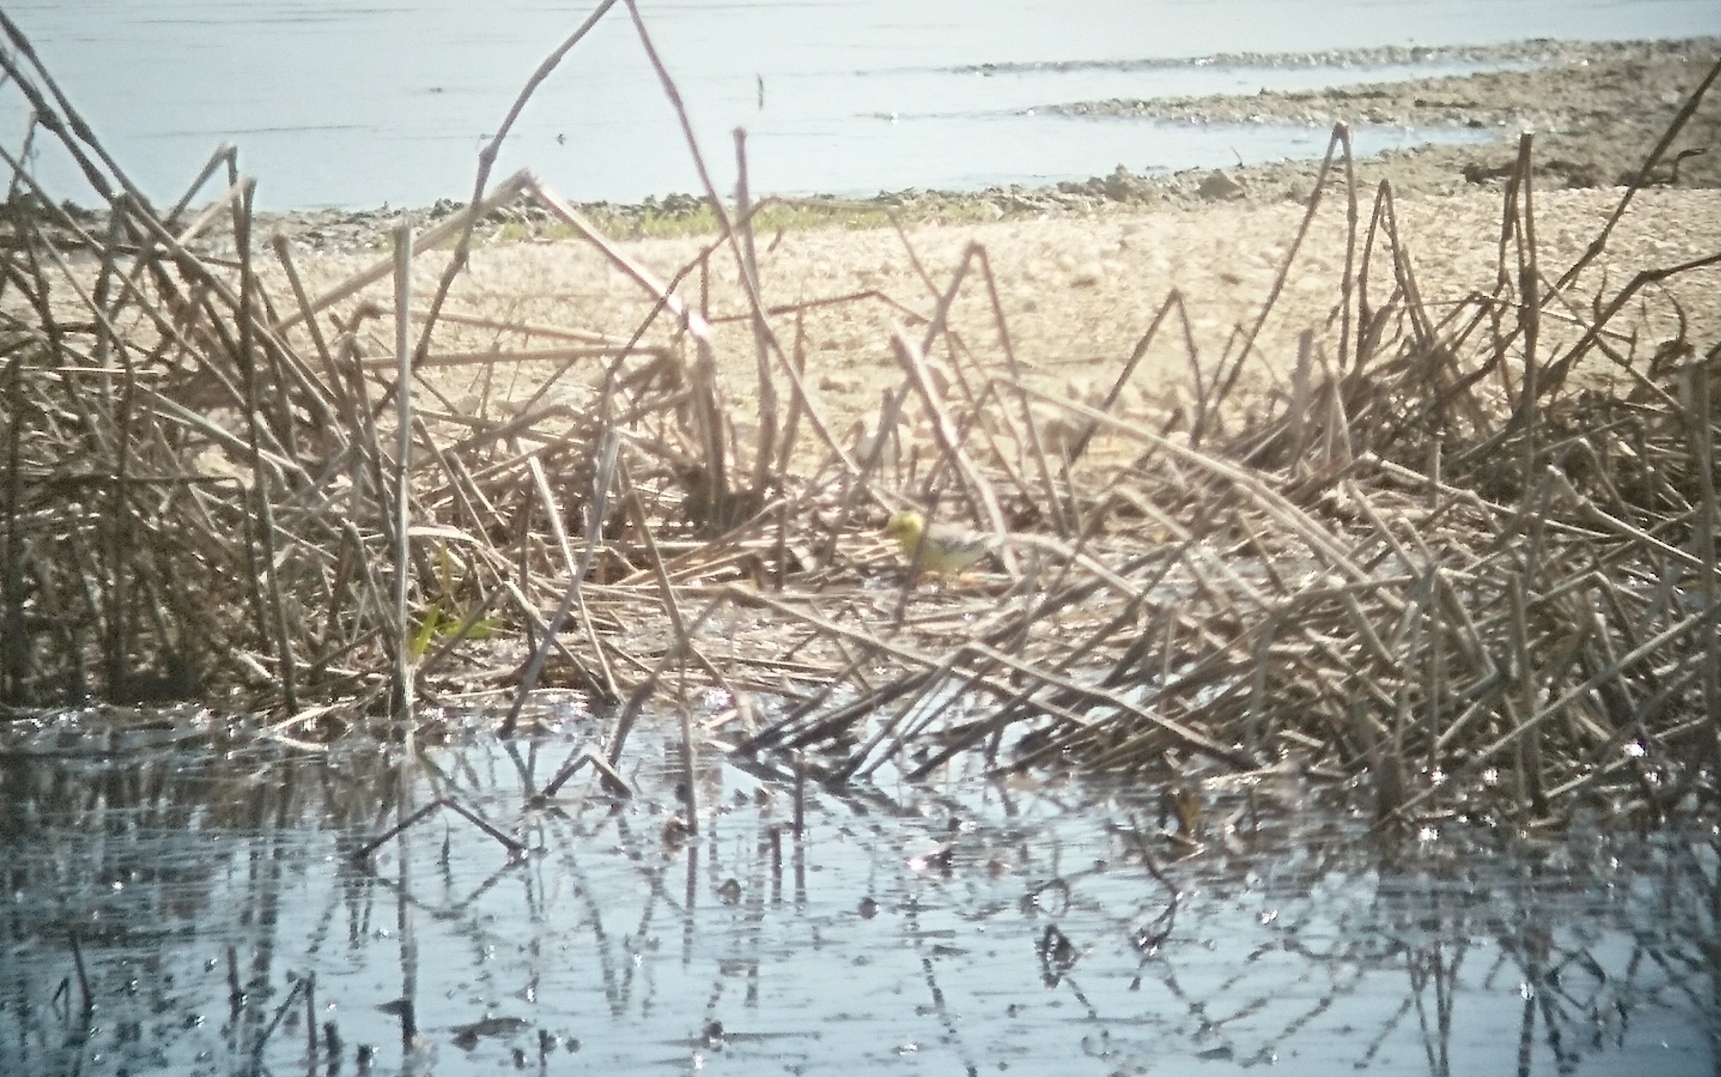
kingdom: Animalia
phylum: Chordata
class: Aves
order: Passeriformes
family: Motacillidae
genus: Motacilla
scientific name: Motacilla citreola
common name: Citrine wagtail
